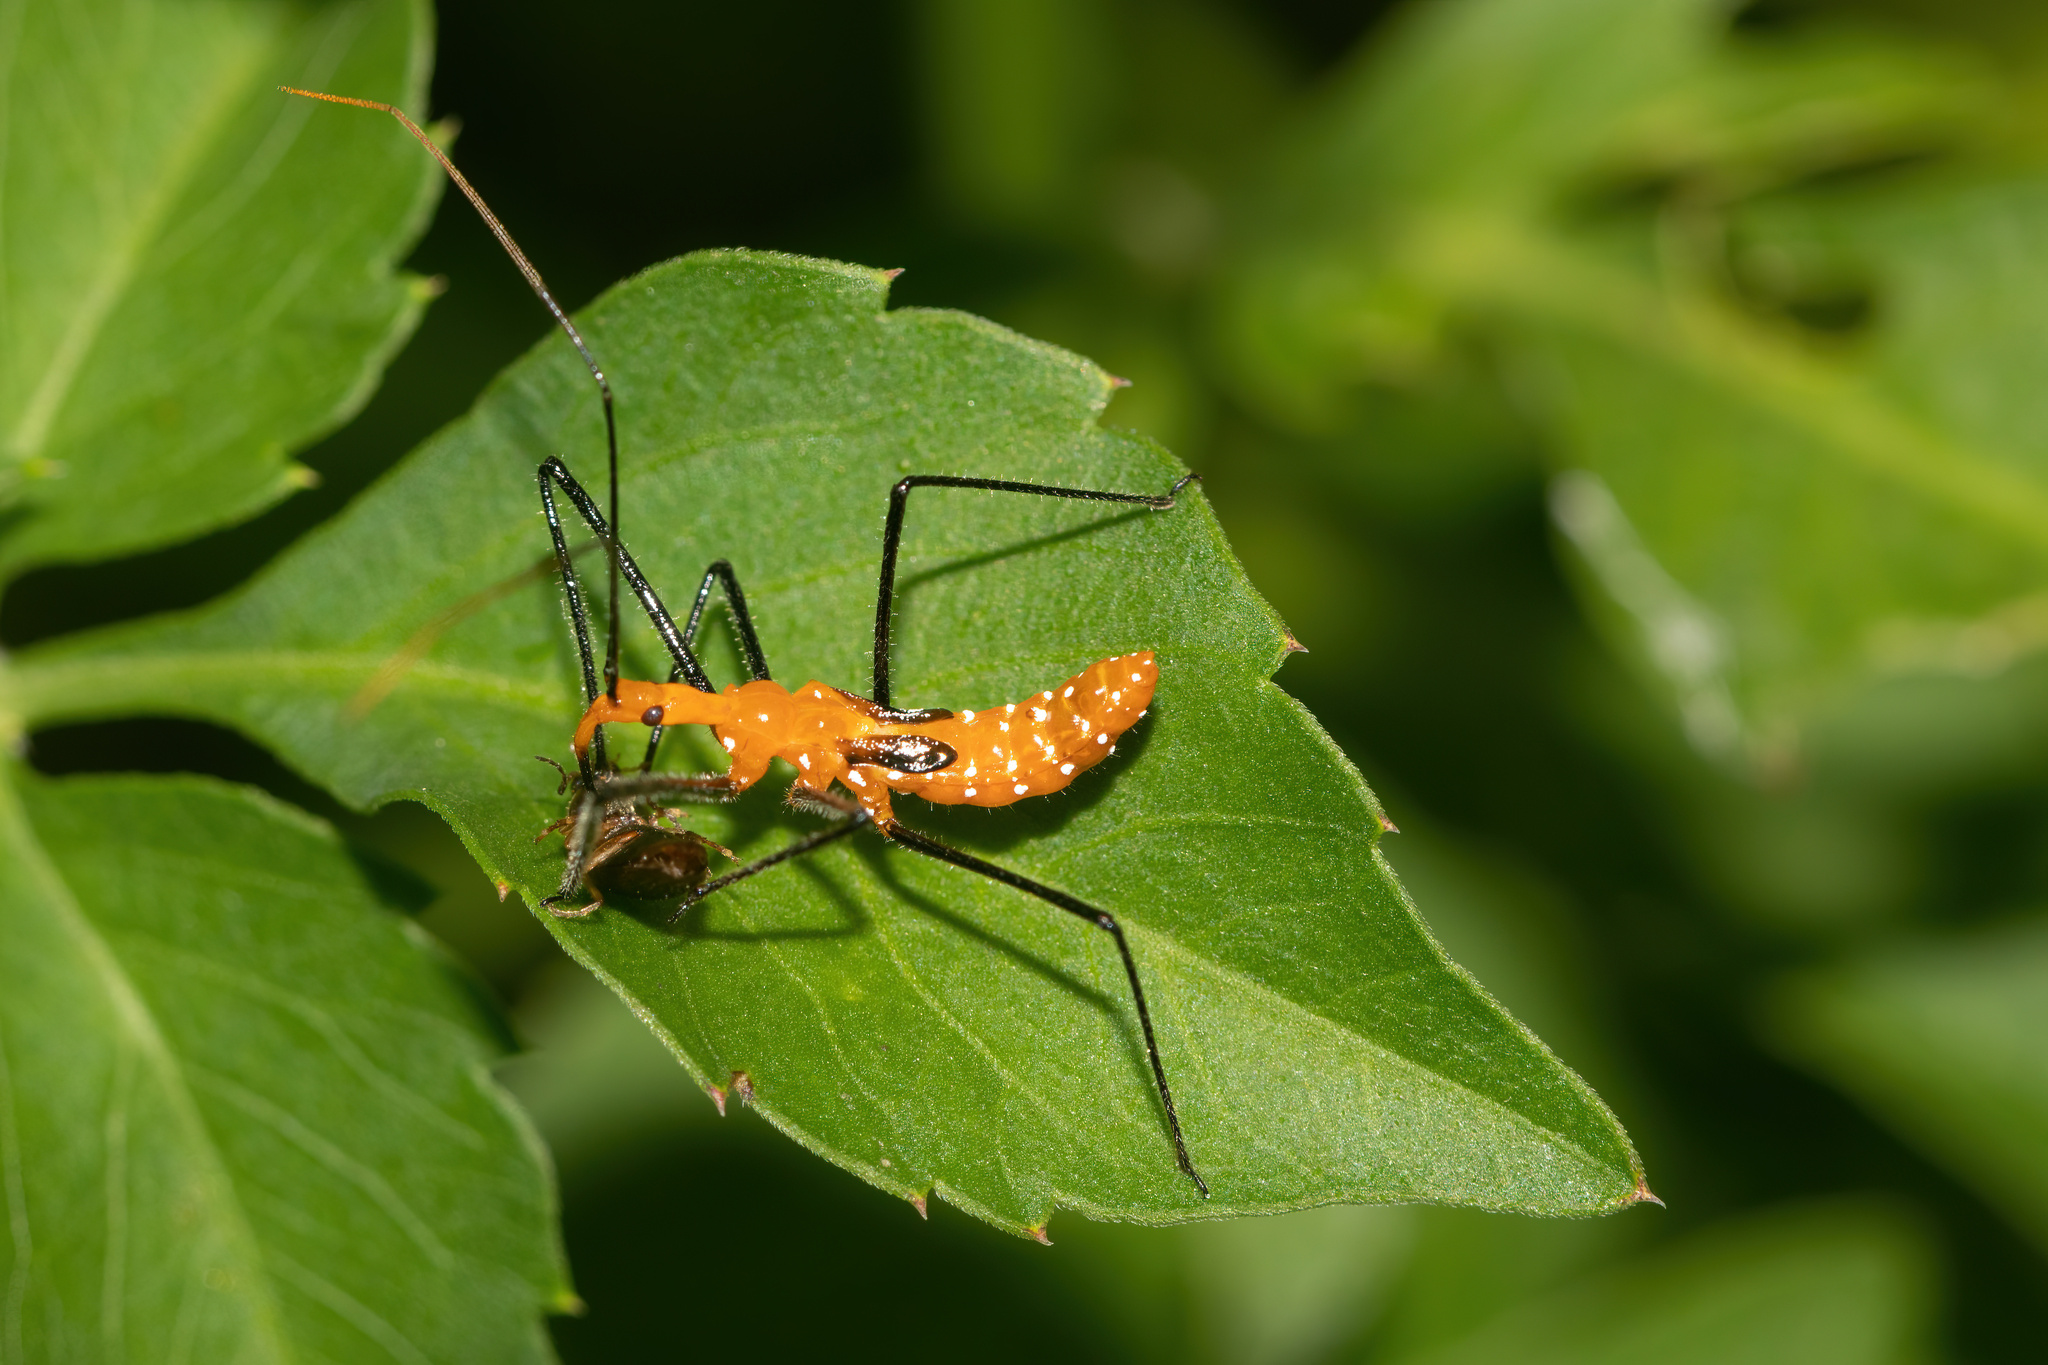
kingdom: Animalia
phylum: Arthropoda
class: Insecta
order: Hemiptera
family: Reduviidae
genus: Zelus
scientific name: Zelus longipes
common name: Milkweed assassin bug
